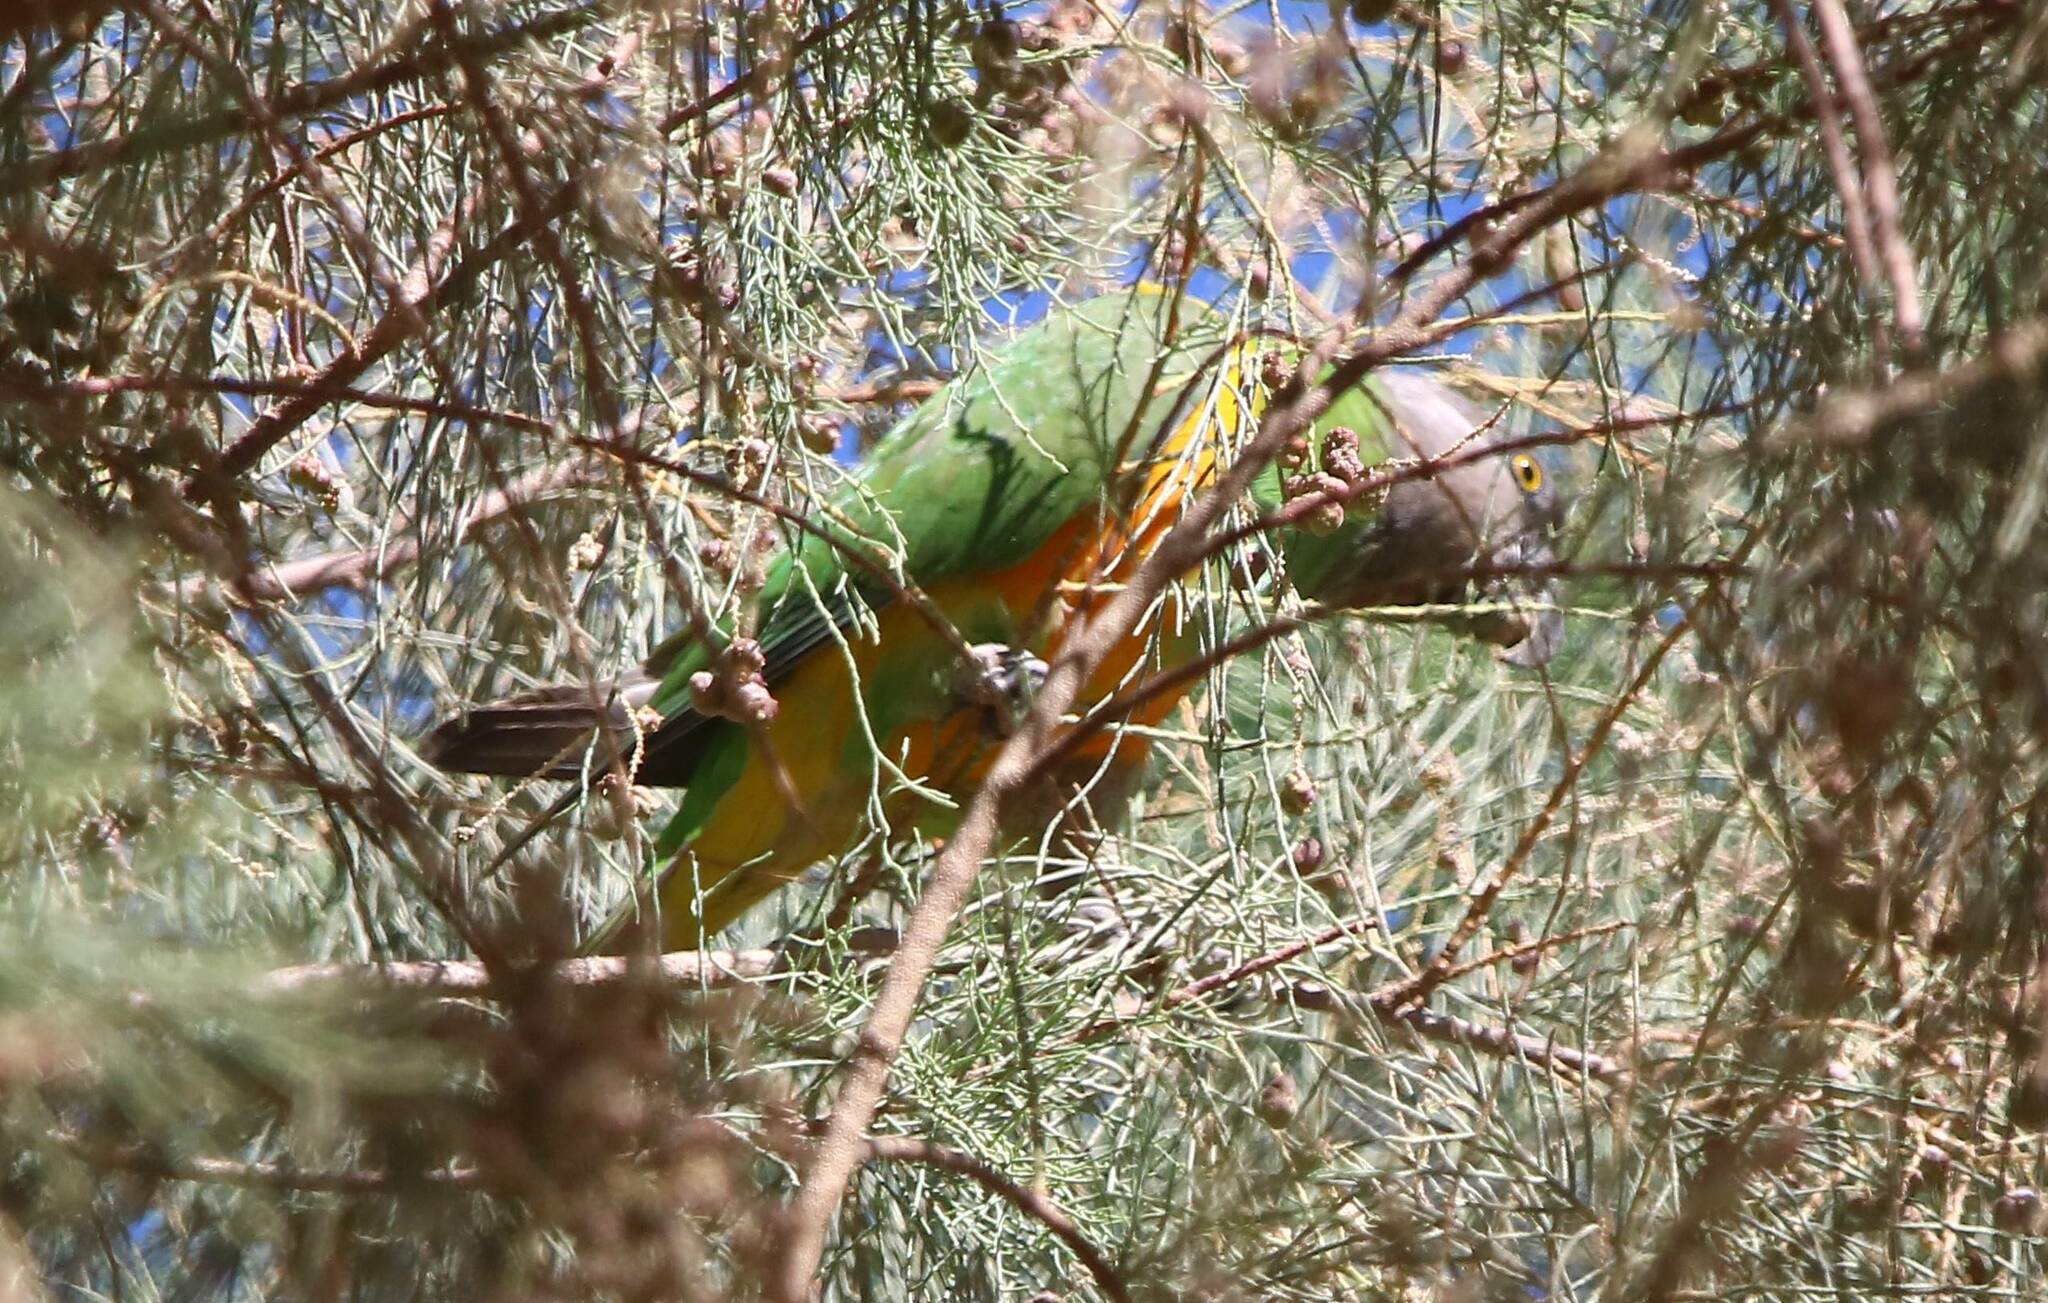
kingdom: Animalia
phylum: Chordata
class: Aves
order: Psittaciformes
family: Psittacidae
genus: Poicephalus
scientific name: Poicephalus senegalus
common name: Senegal parrot
